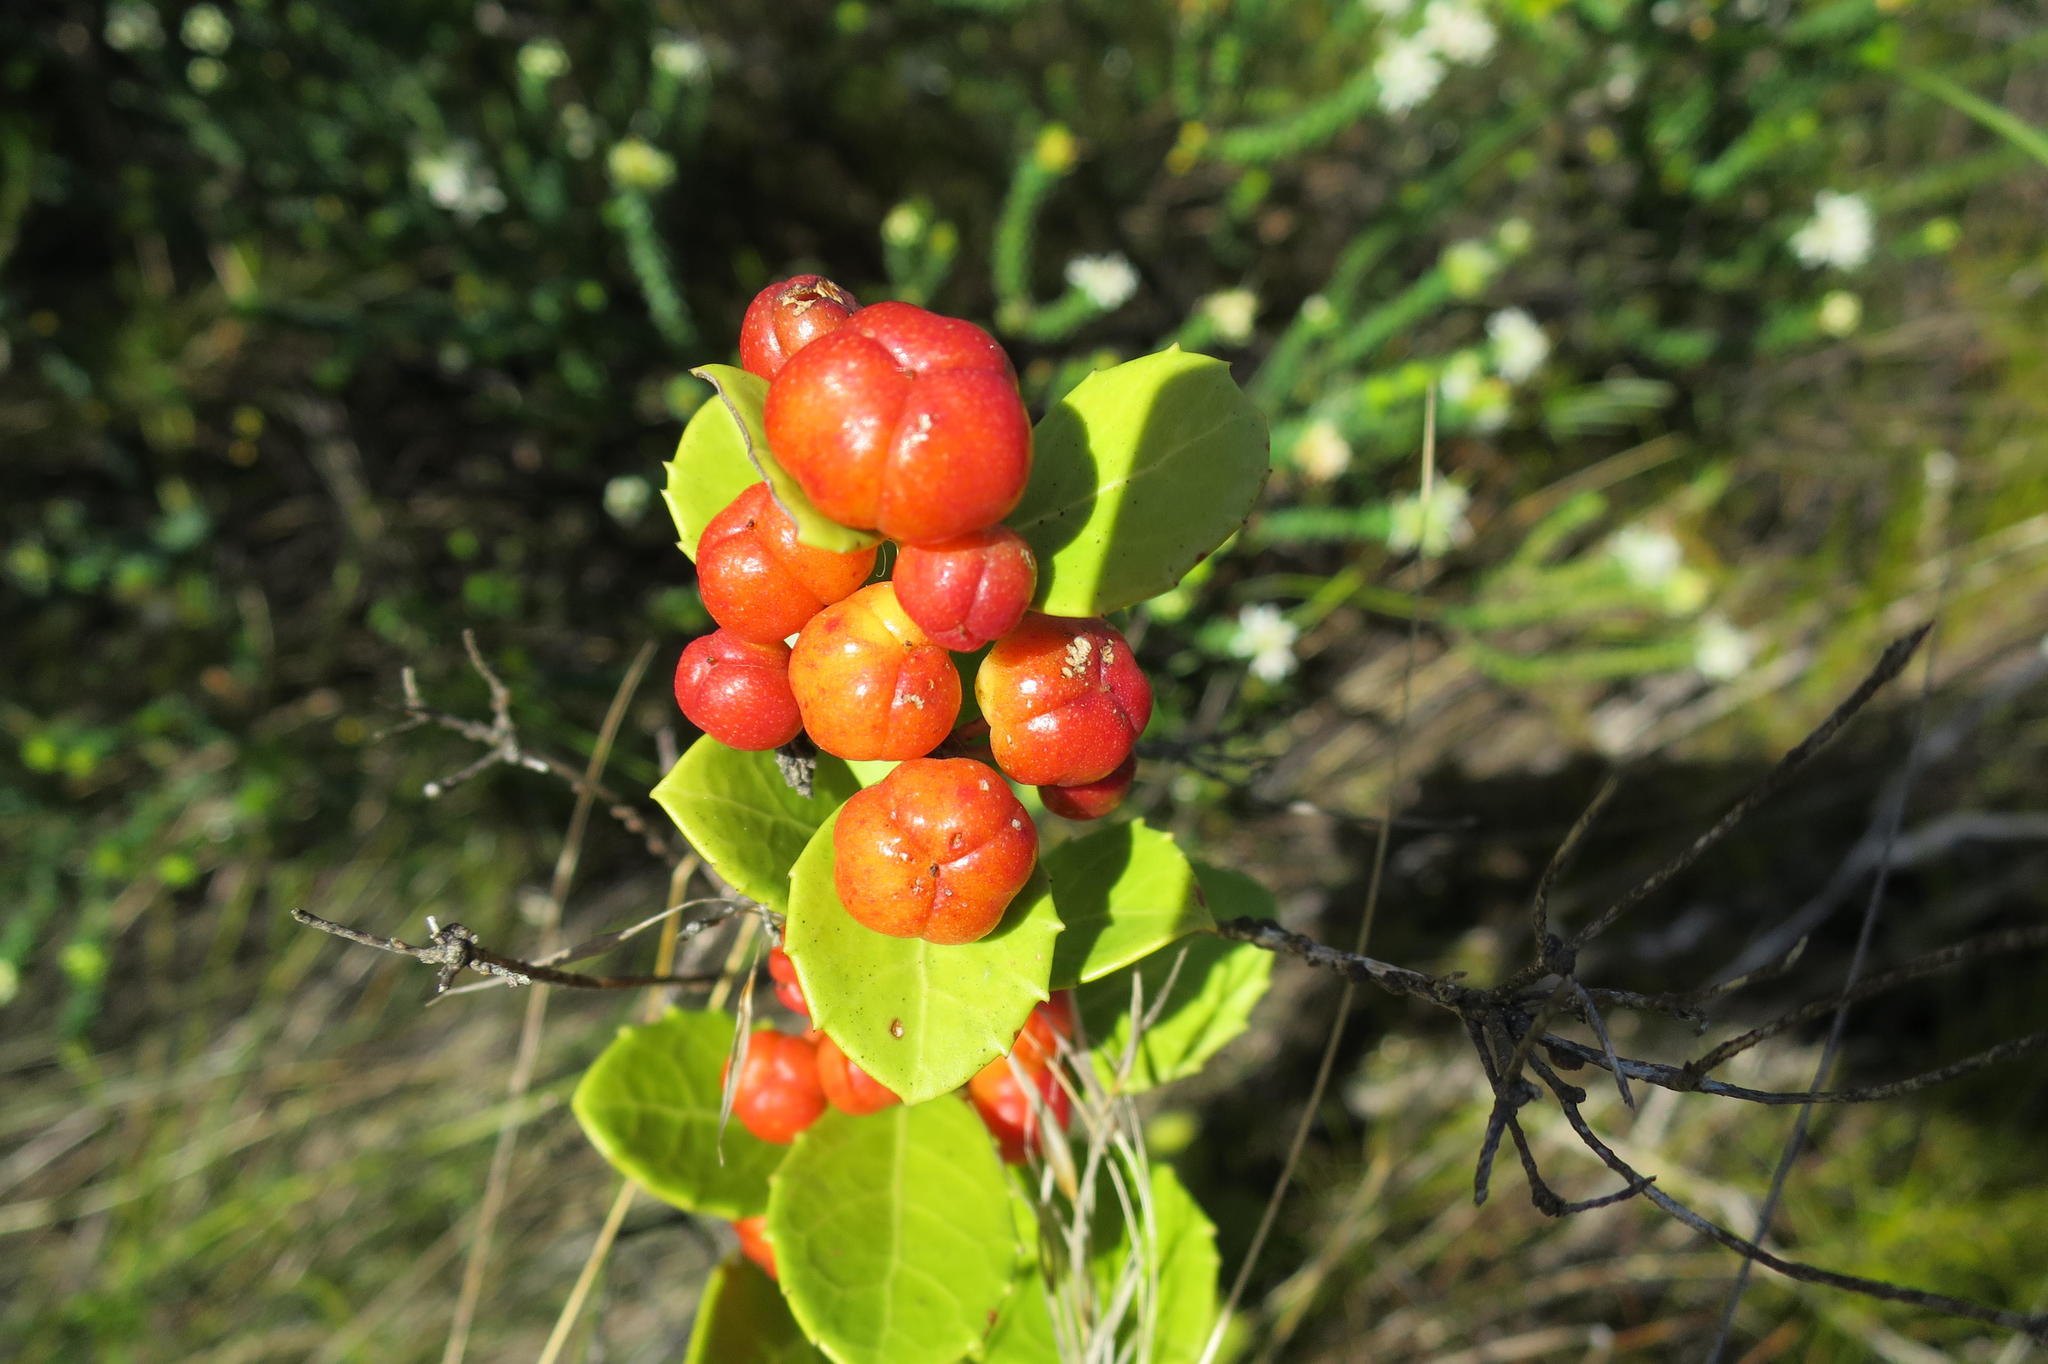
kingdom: Plantae
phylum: Tracheophyta
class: Magnoliopsida
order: Celastrales
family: Celastraceae
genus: Gymnosporia
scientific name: Gymnosporia procumbens
